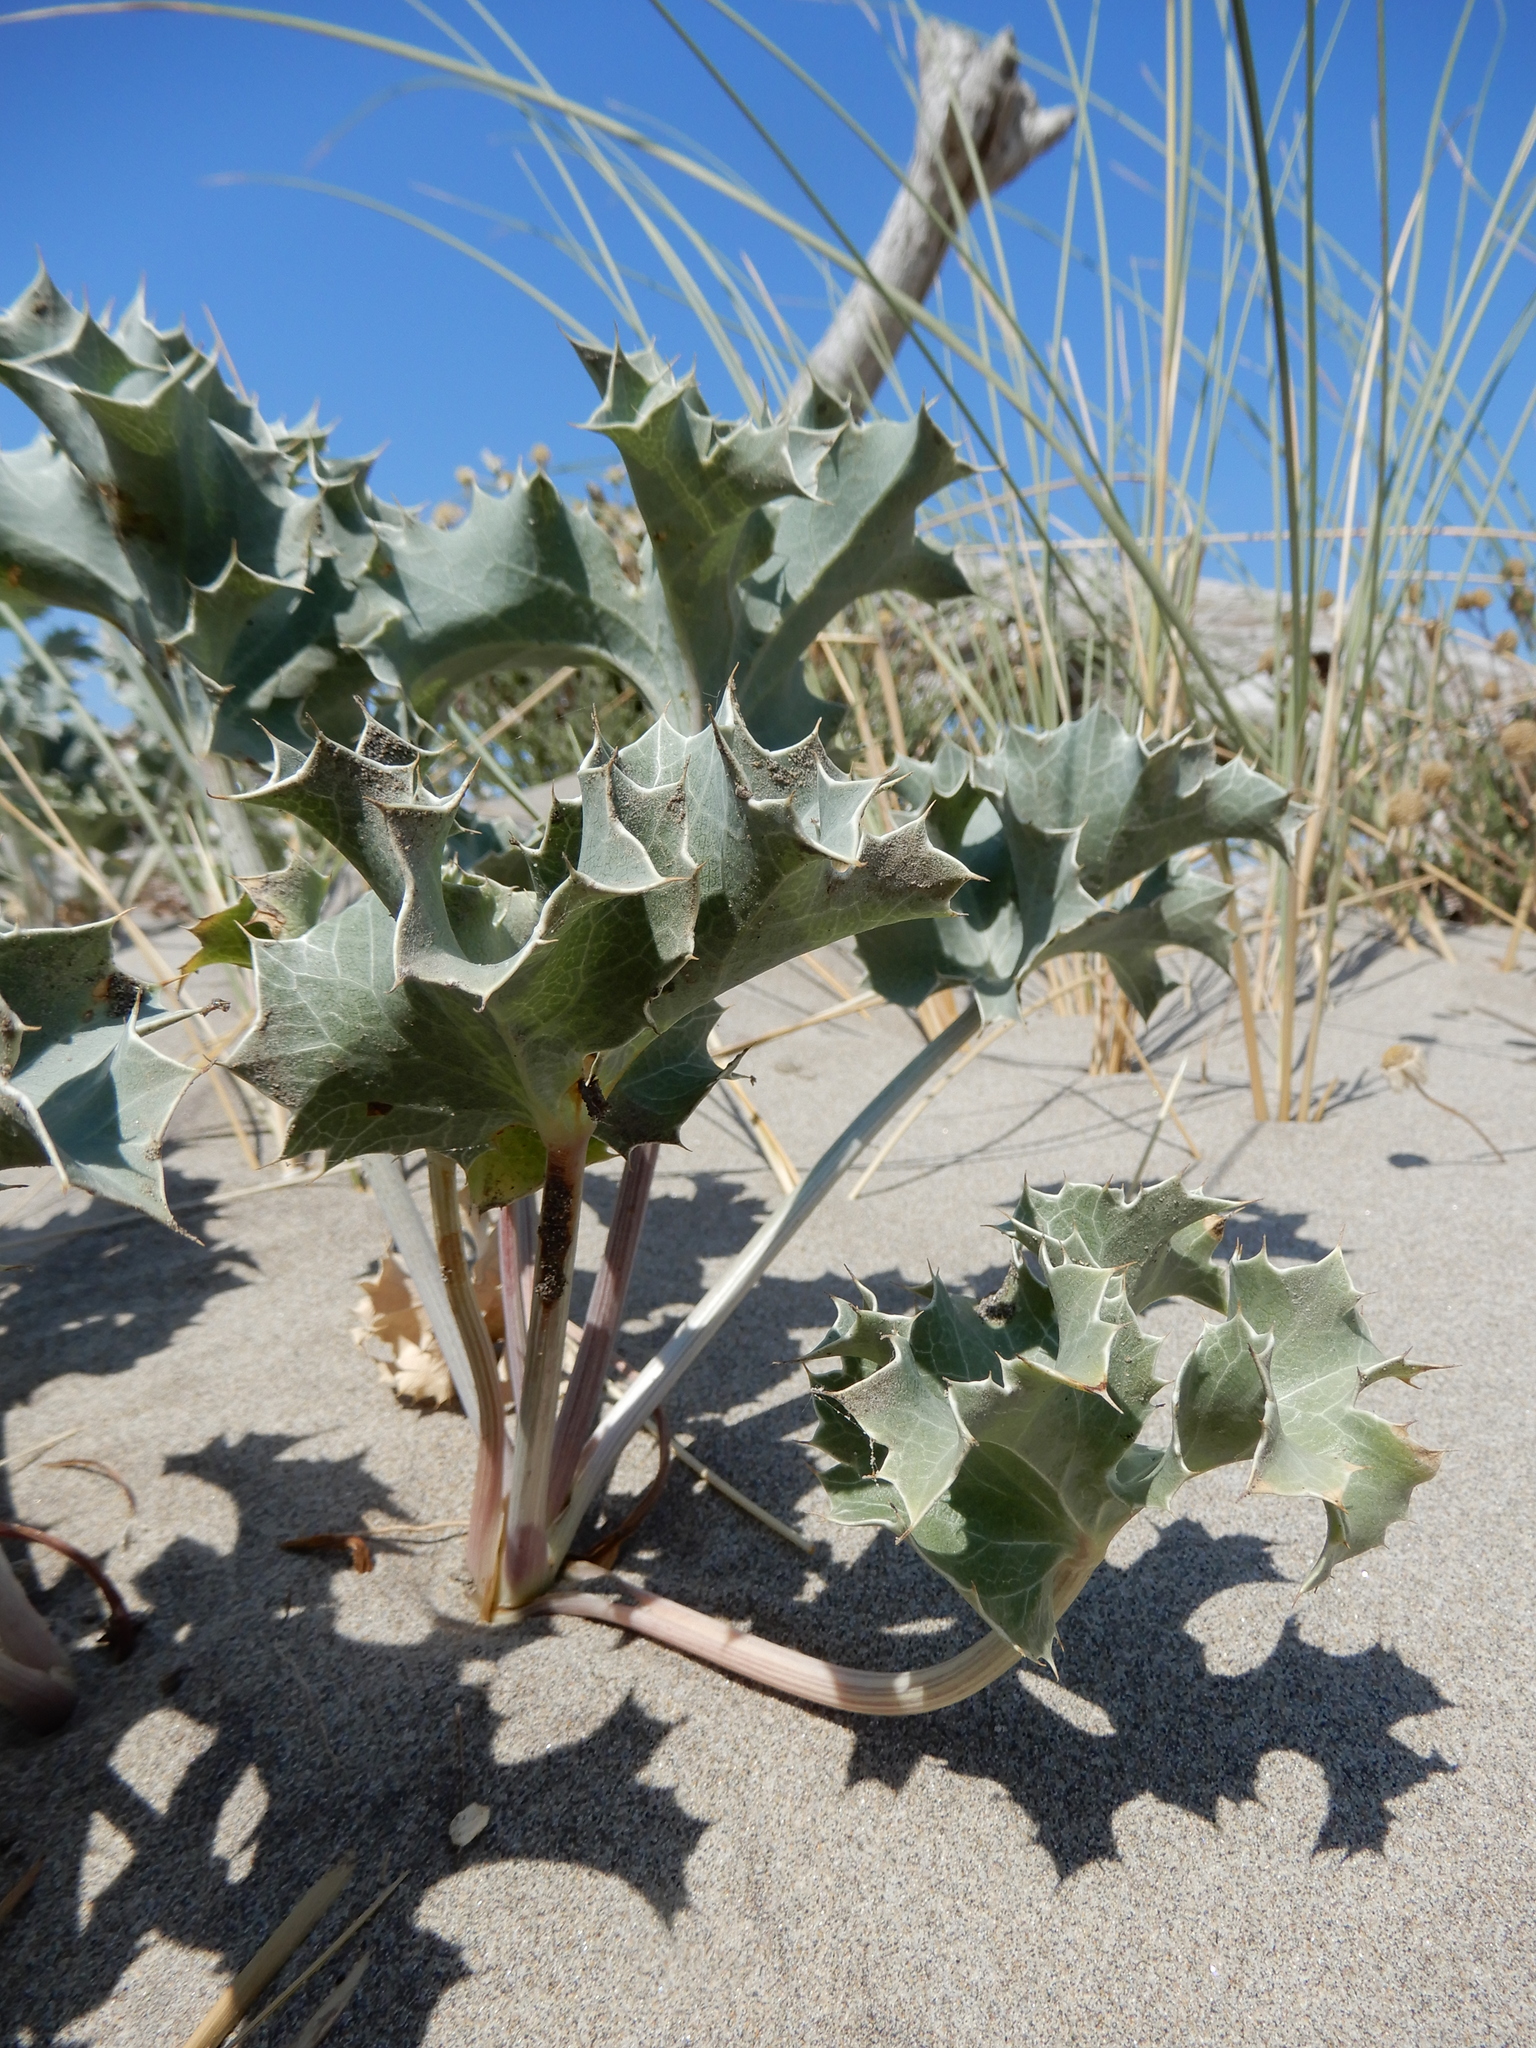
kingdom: Plantae
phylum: Tracheophyta
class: Magnoliopsida
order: Apiales
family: Apiaceae
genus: Eryngium
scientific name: Eryngium maritimum
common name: Sea-holly
